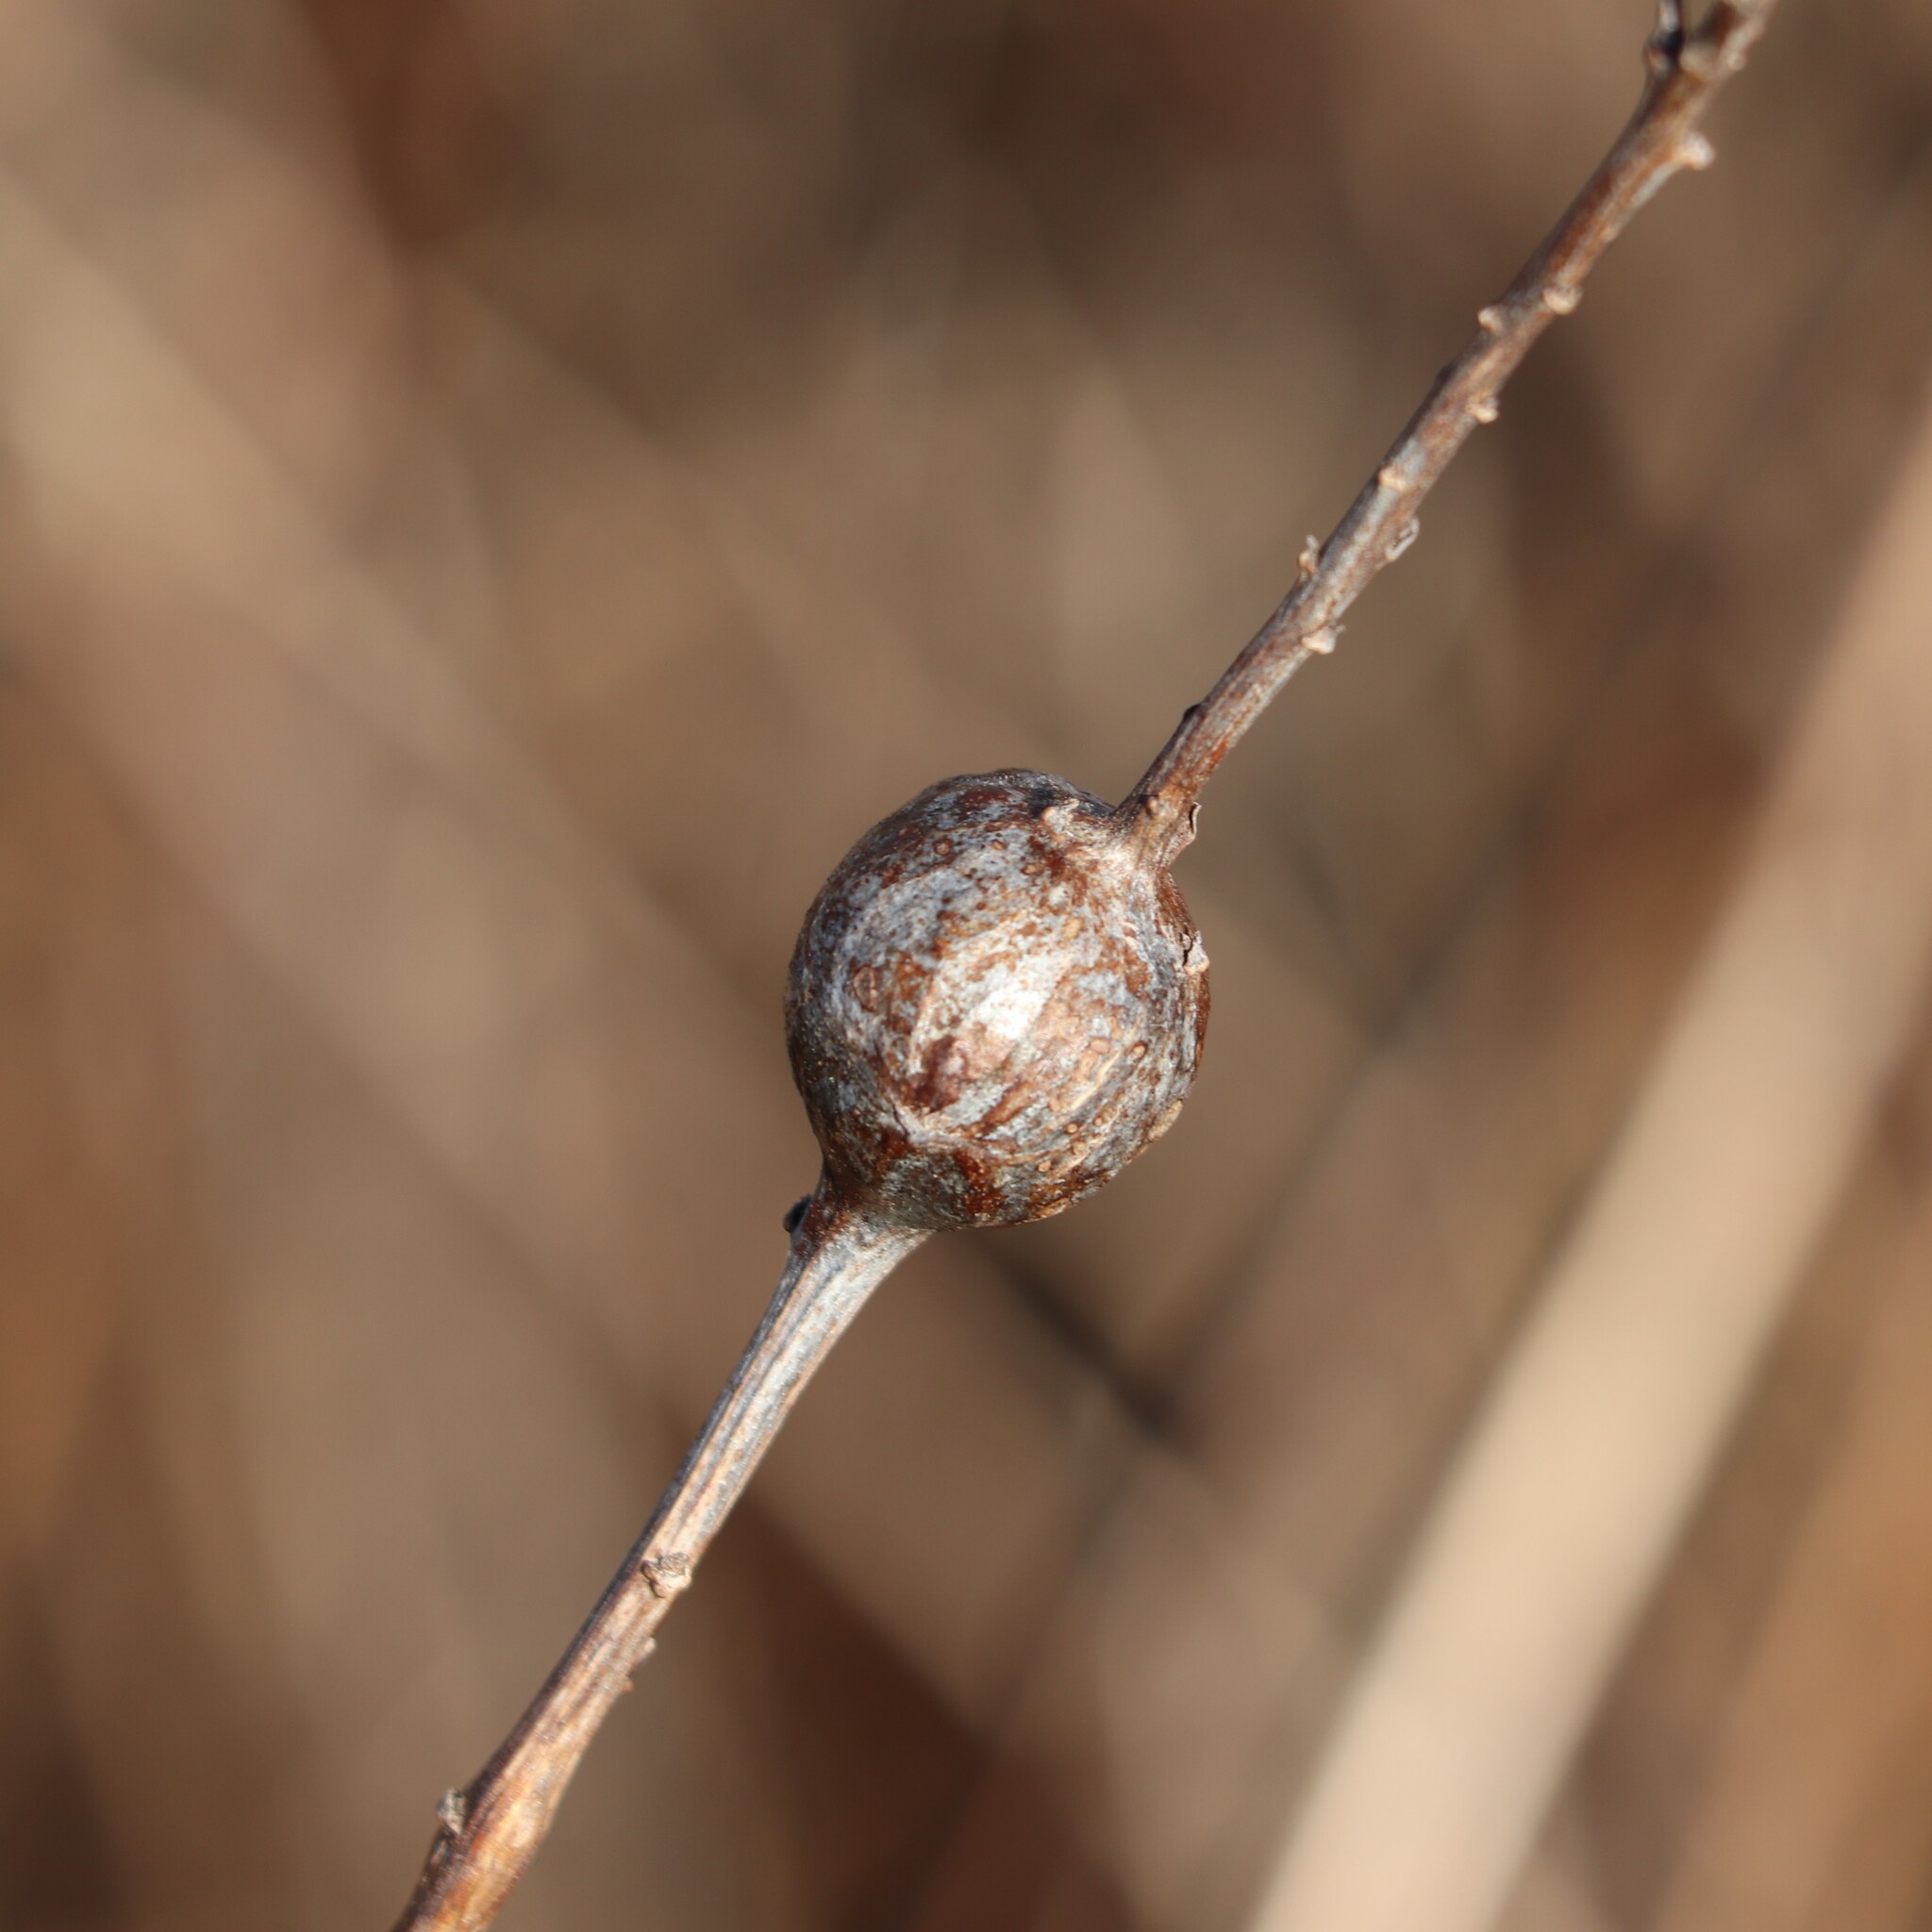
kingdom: Animalia
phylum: Arthropoda
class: Insecta
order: Diptera
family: Tephritidae
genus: Eurosta
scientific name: Eurosta solidaginis
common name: Goldenrod gall fly
